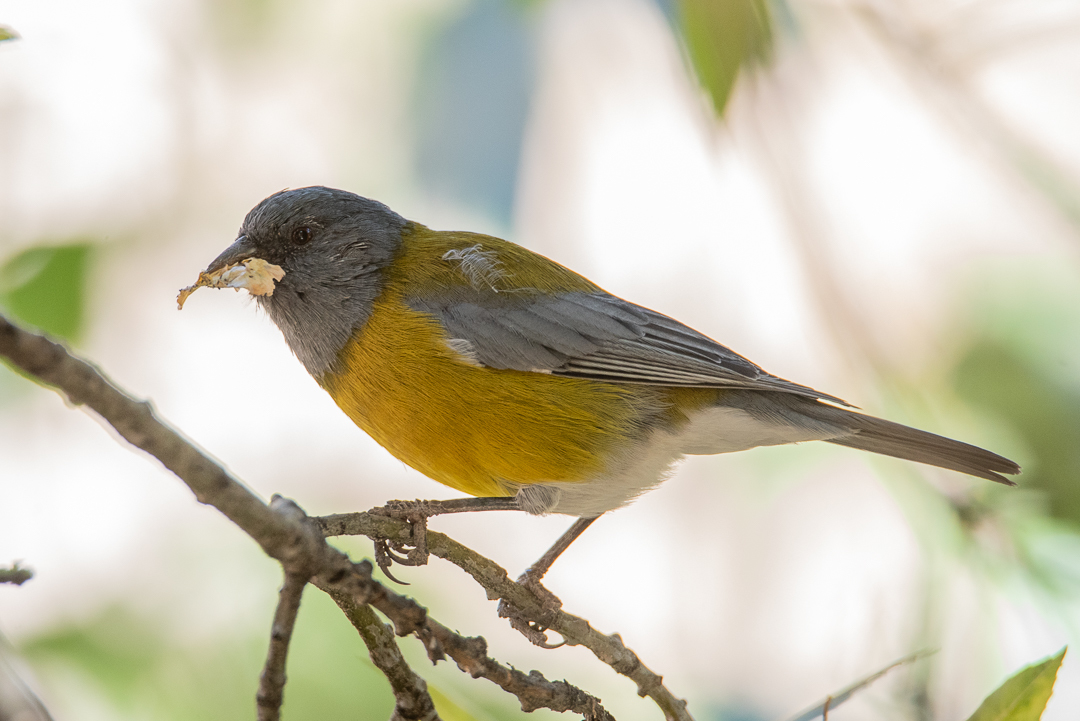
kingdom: Animalia
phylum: Chordata
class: Aves
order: Passeriformes
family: Thraupidae
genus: Phrygilus
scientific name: Phrygilus gayi
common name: Grey-hooded sierra finch
